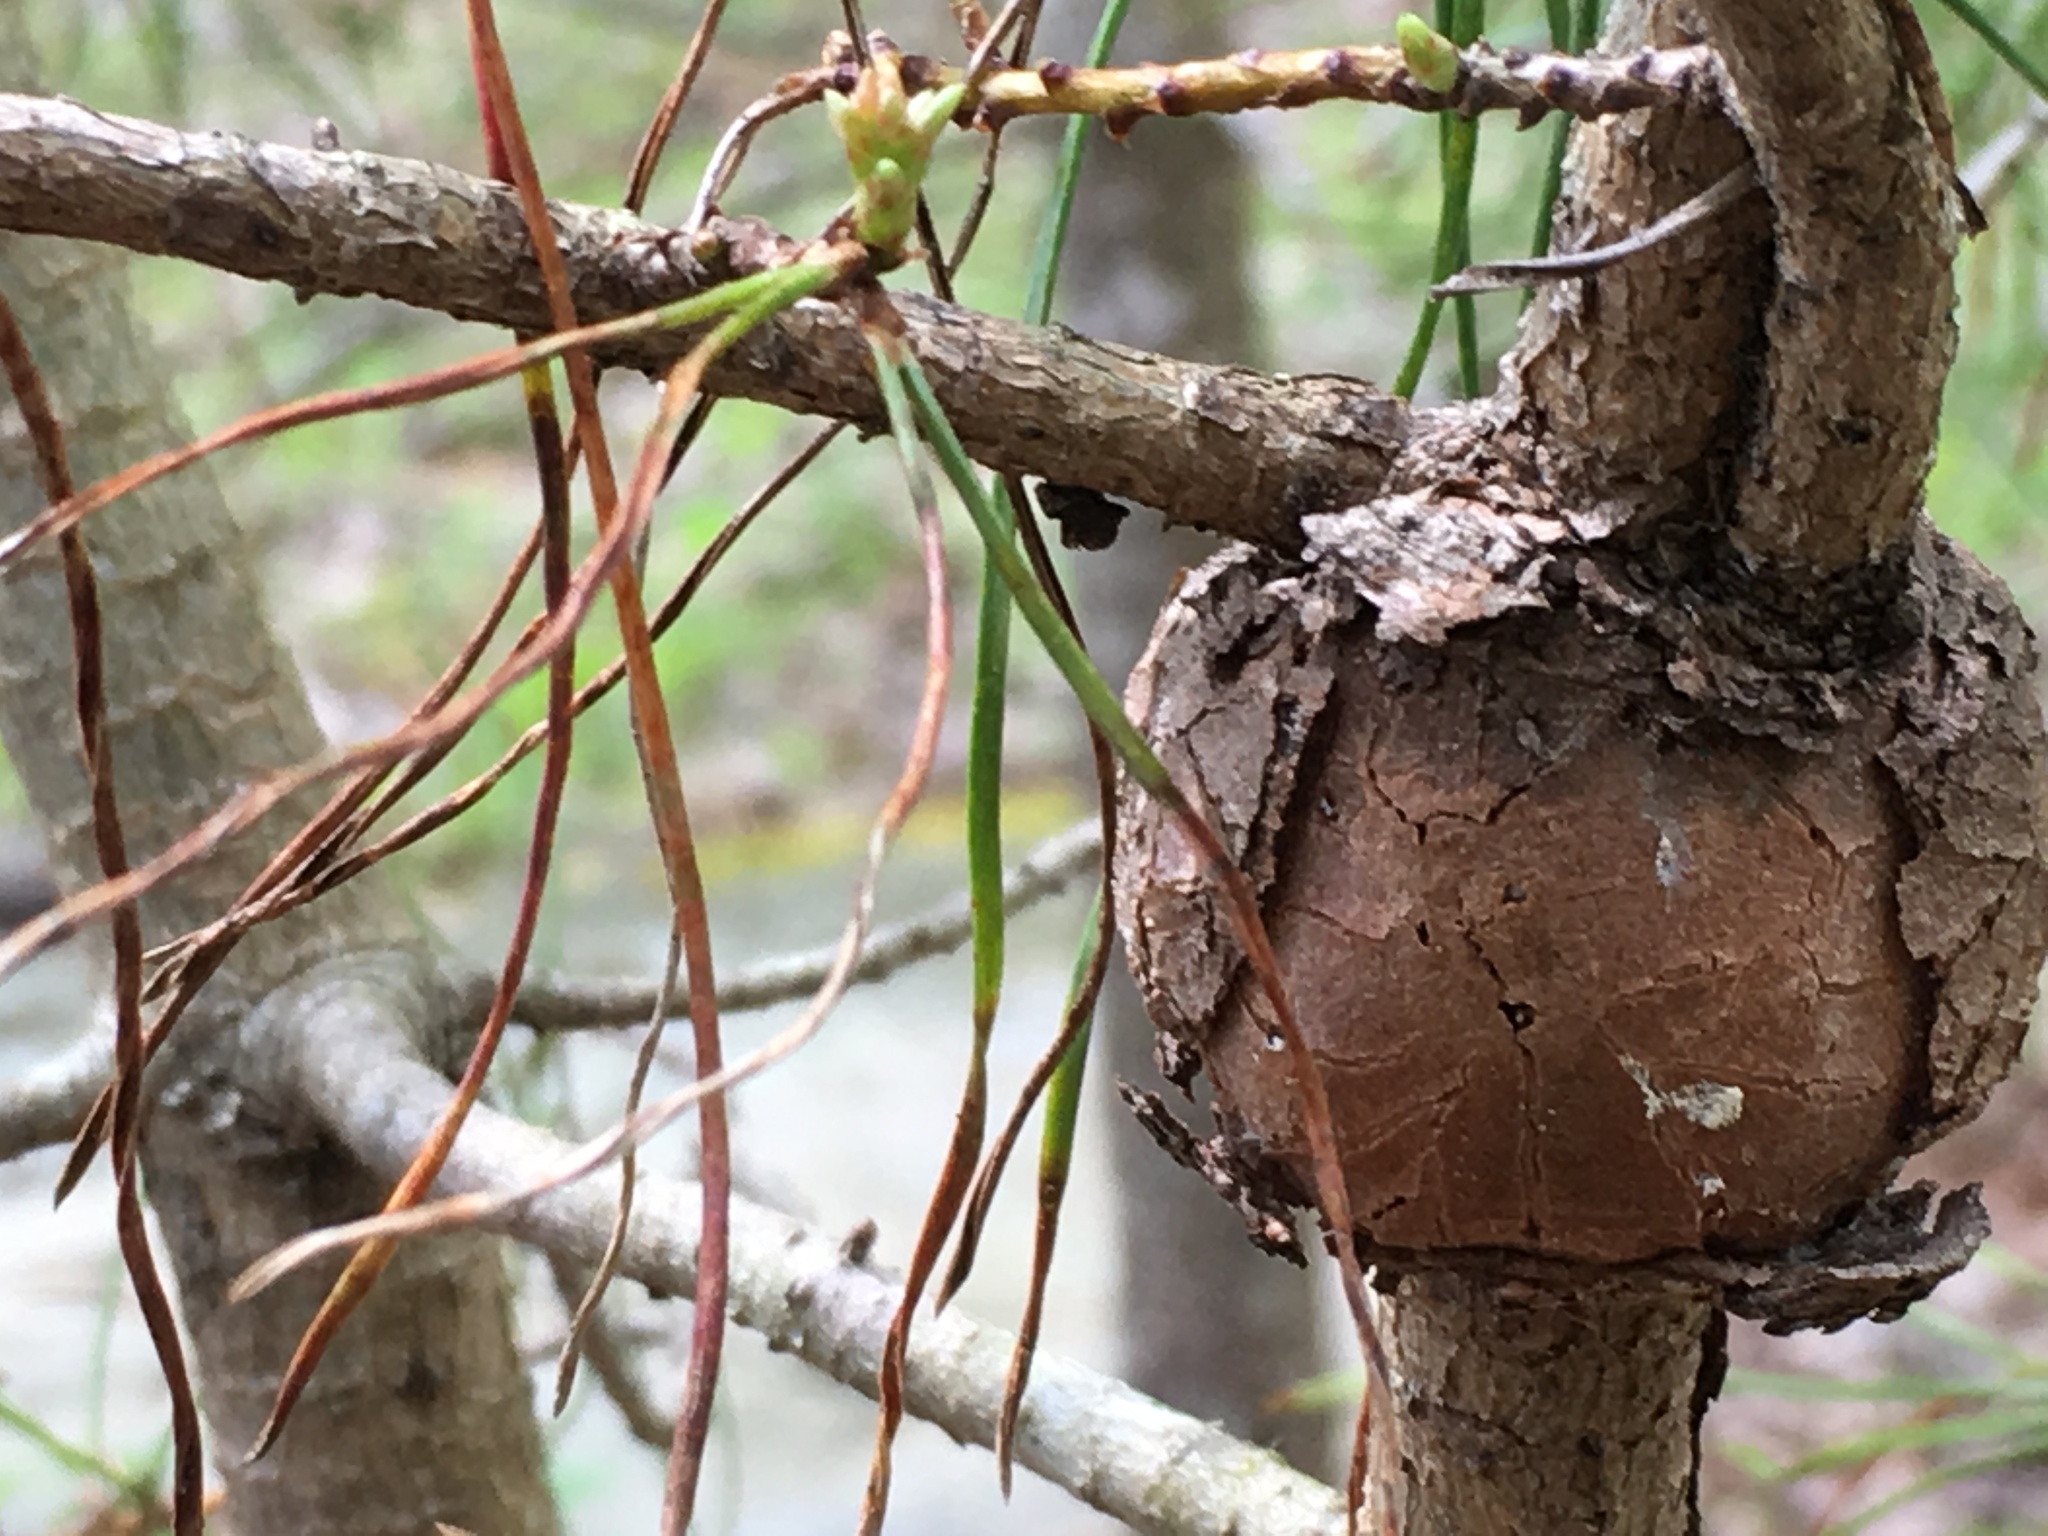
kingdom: Plantae
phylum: Tracheophyta
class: Pinopsida
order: Pinales
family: Pinaceae
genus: Pinus
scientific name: Pinus virginiana
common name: Scrub pine
